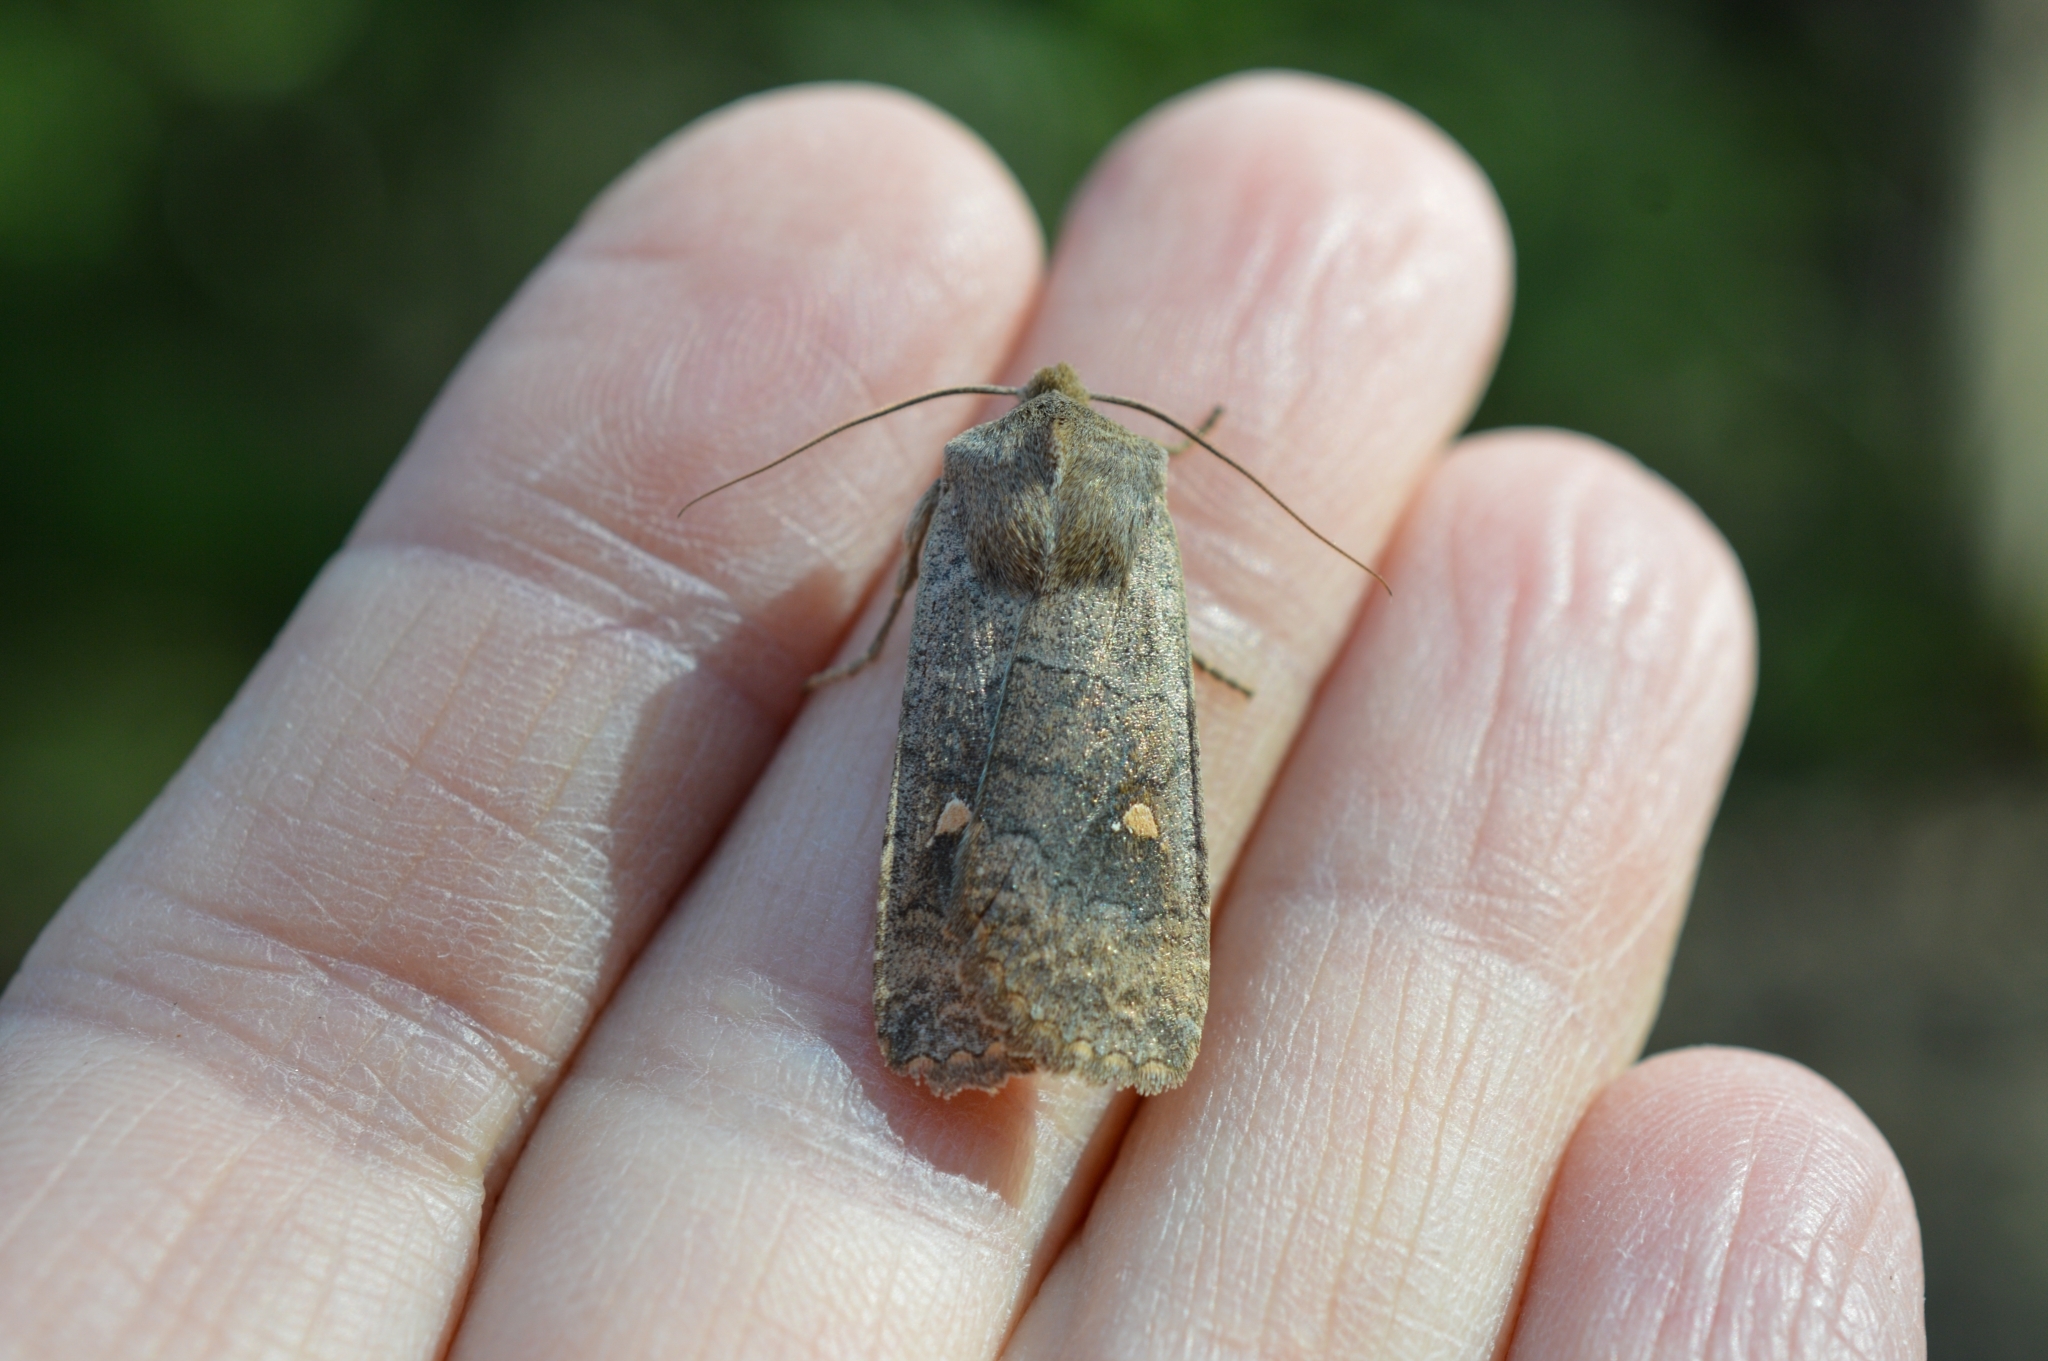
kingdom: Animalia
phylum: Arthropoda
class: Insecta
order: Lepidoptera
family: Noctuidae
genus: Eupsilia
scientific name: Eupsilia transversa
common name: Satellite
